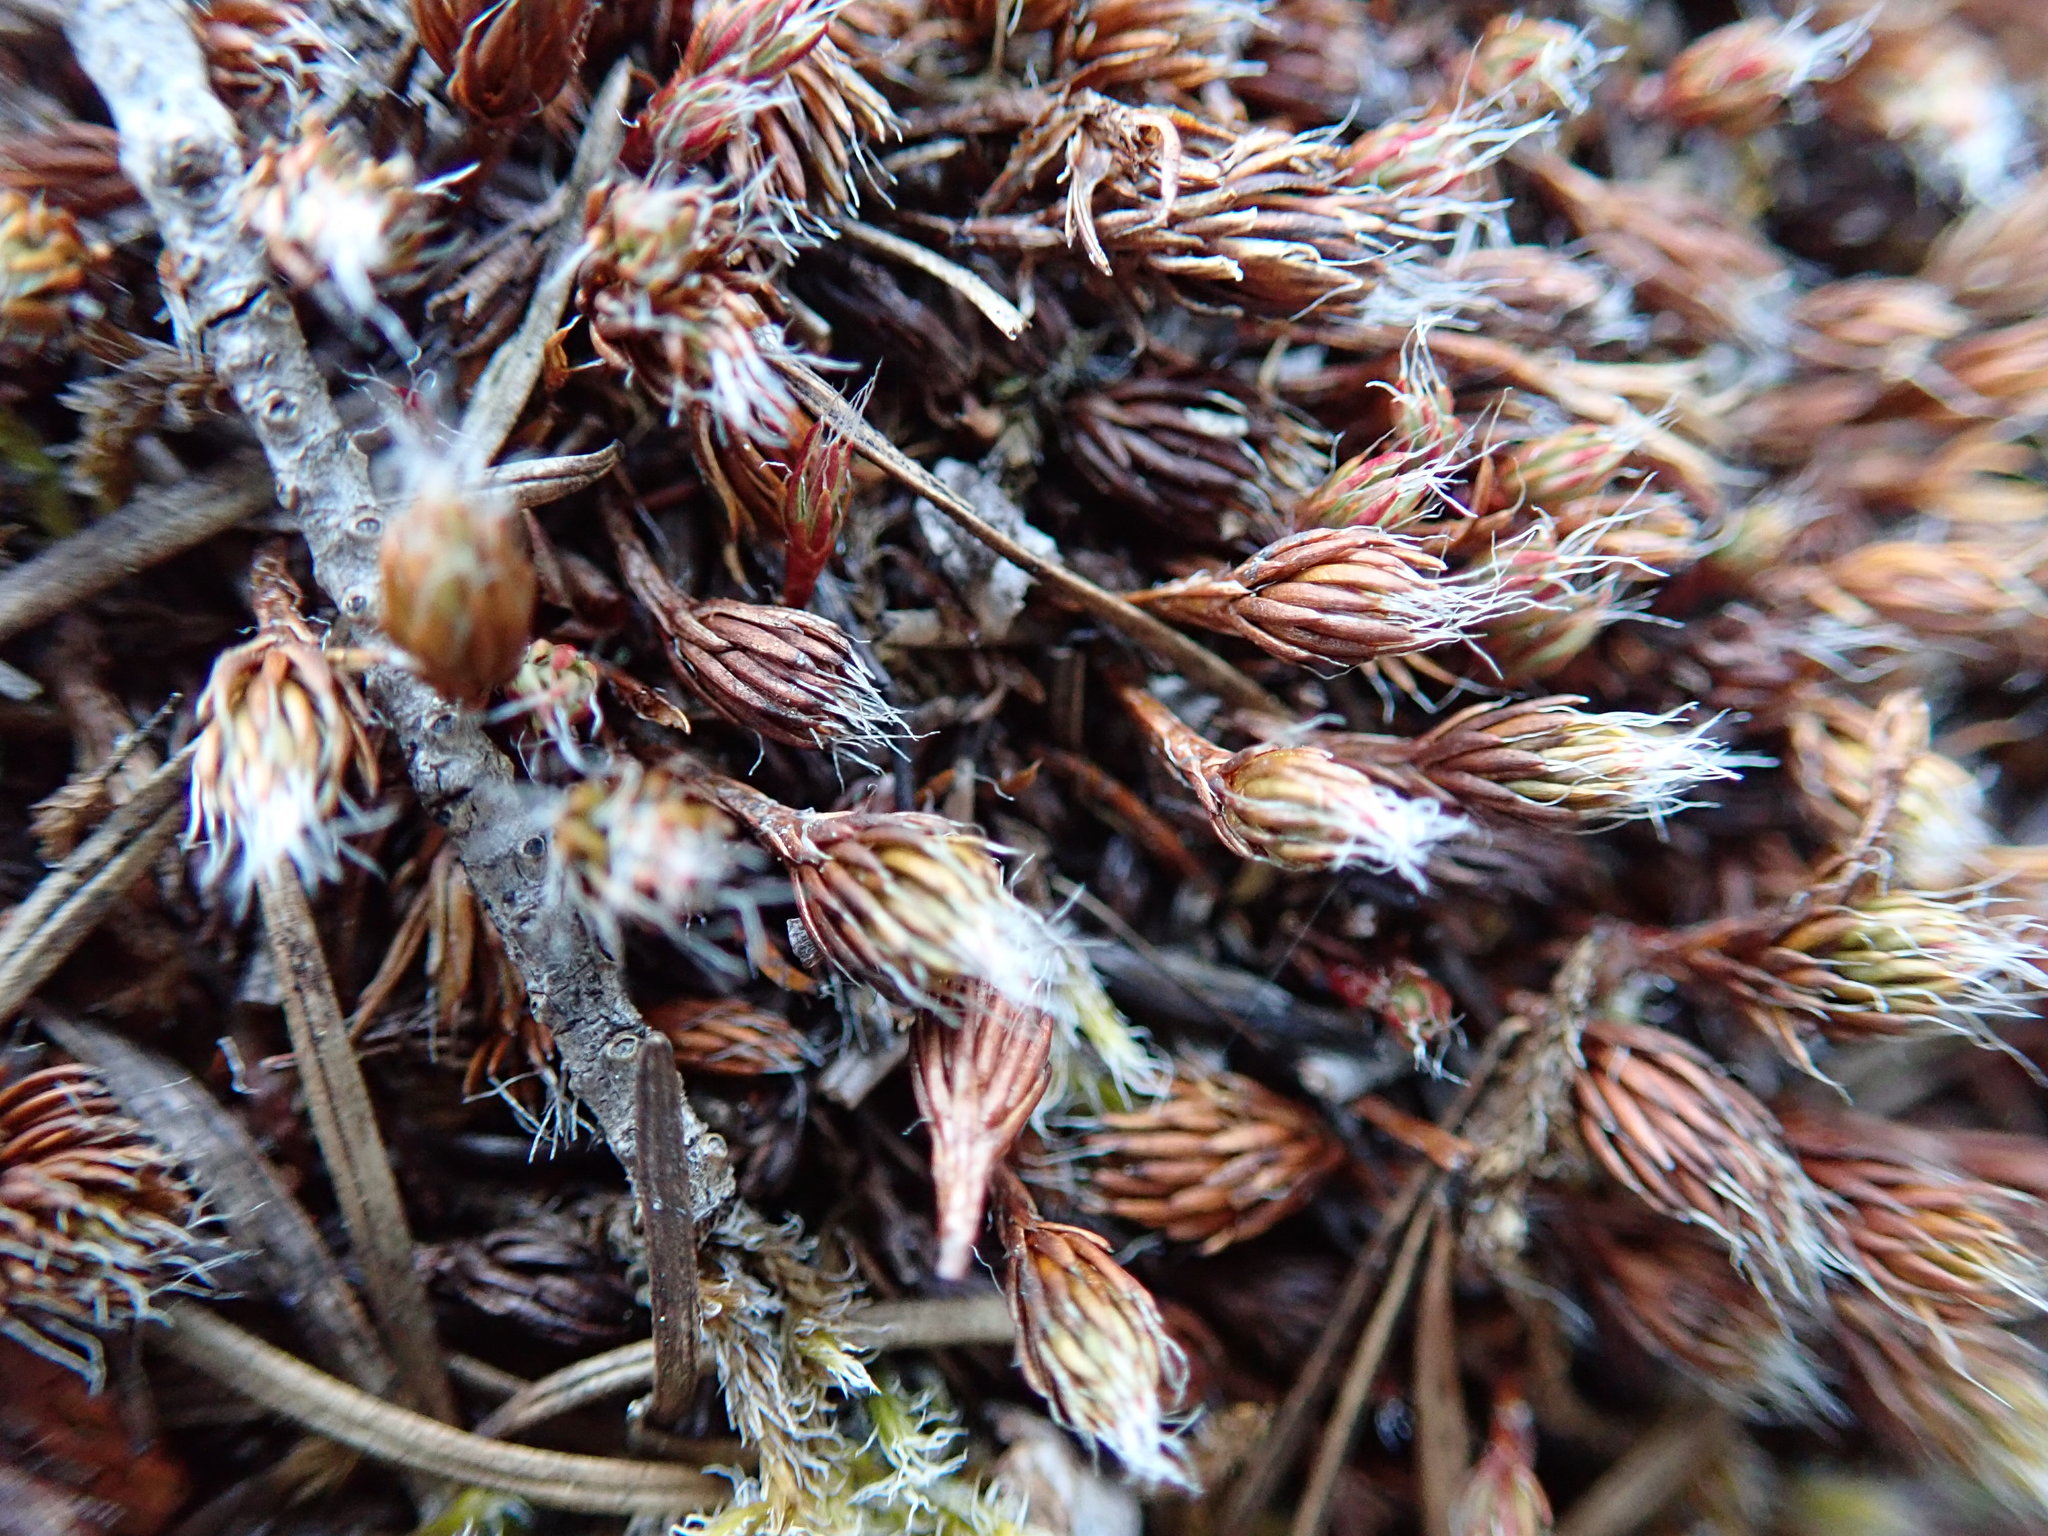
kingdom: Plantae
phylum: Bryophyta
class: Polytrichopsida
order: Polytrichales
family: Polytrichaceae
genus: Polytrichum
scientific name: Polytrichum piliferum
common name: Bristly haircap
